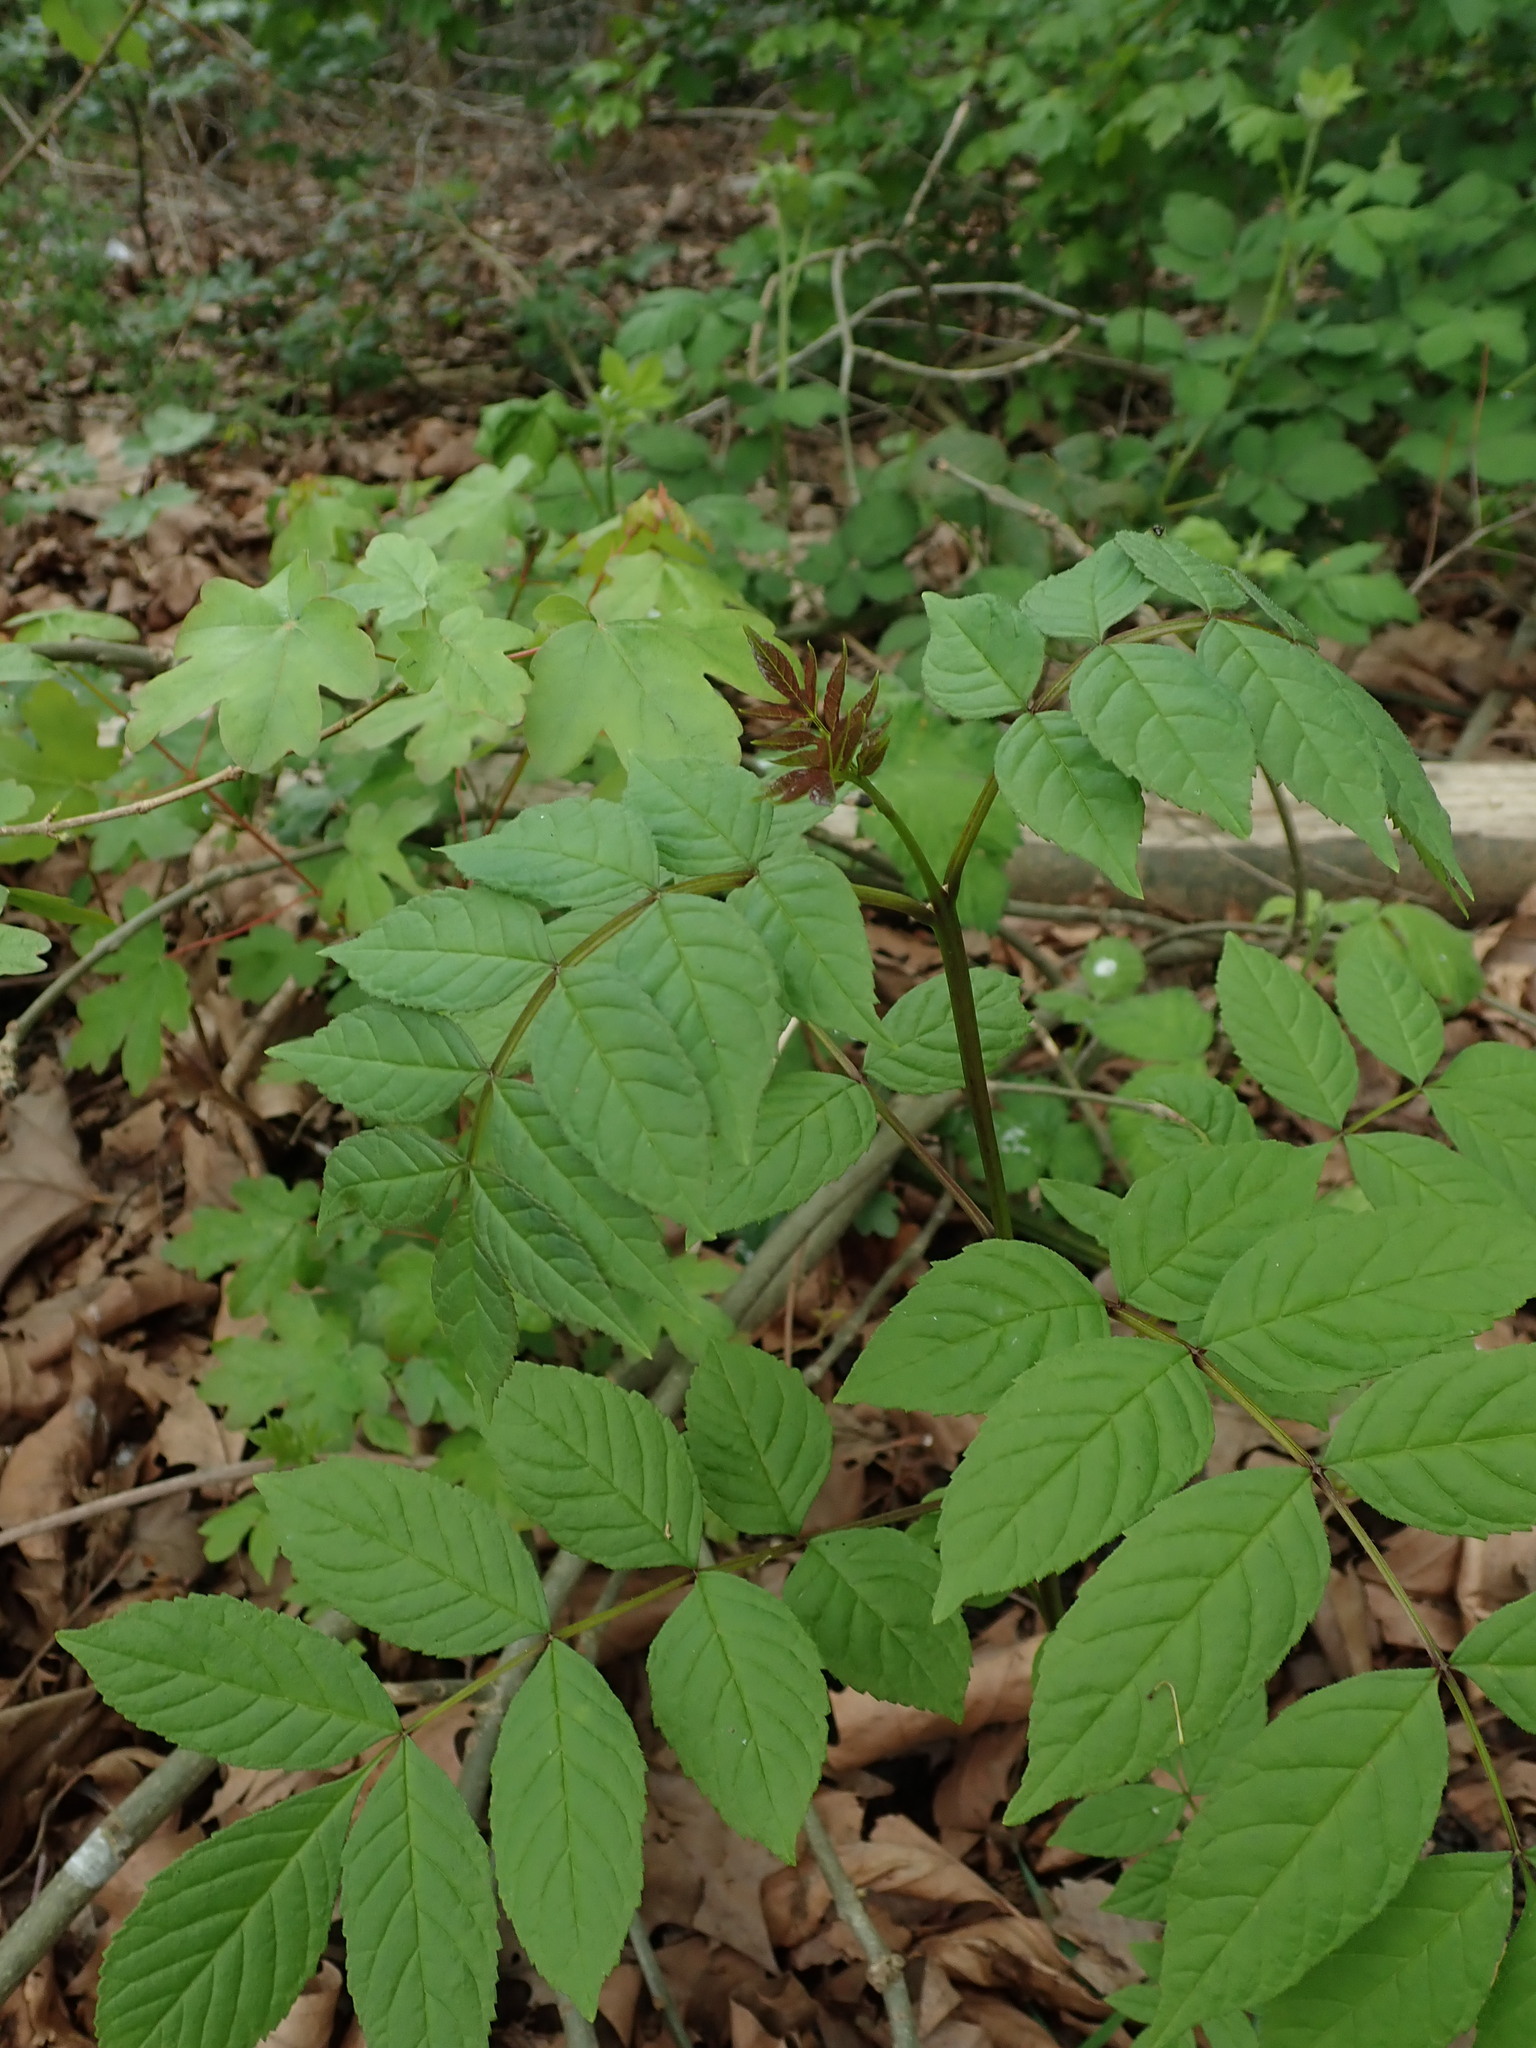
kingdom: Plantae
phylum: Tracheophyta
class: Magnoliopsida
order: Lamiales
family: Oleaceae
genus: Fraxinus
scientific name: Fraxinus excelsior
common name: European ash
